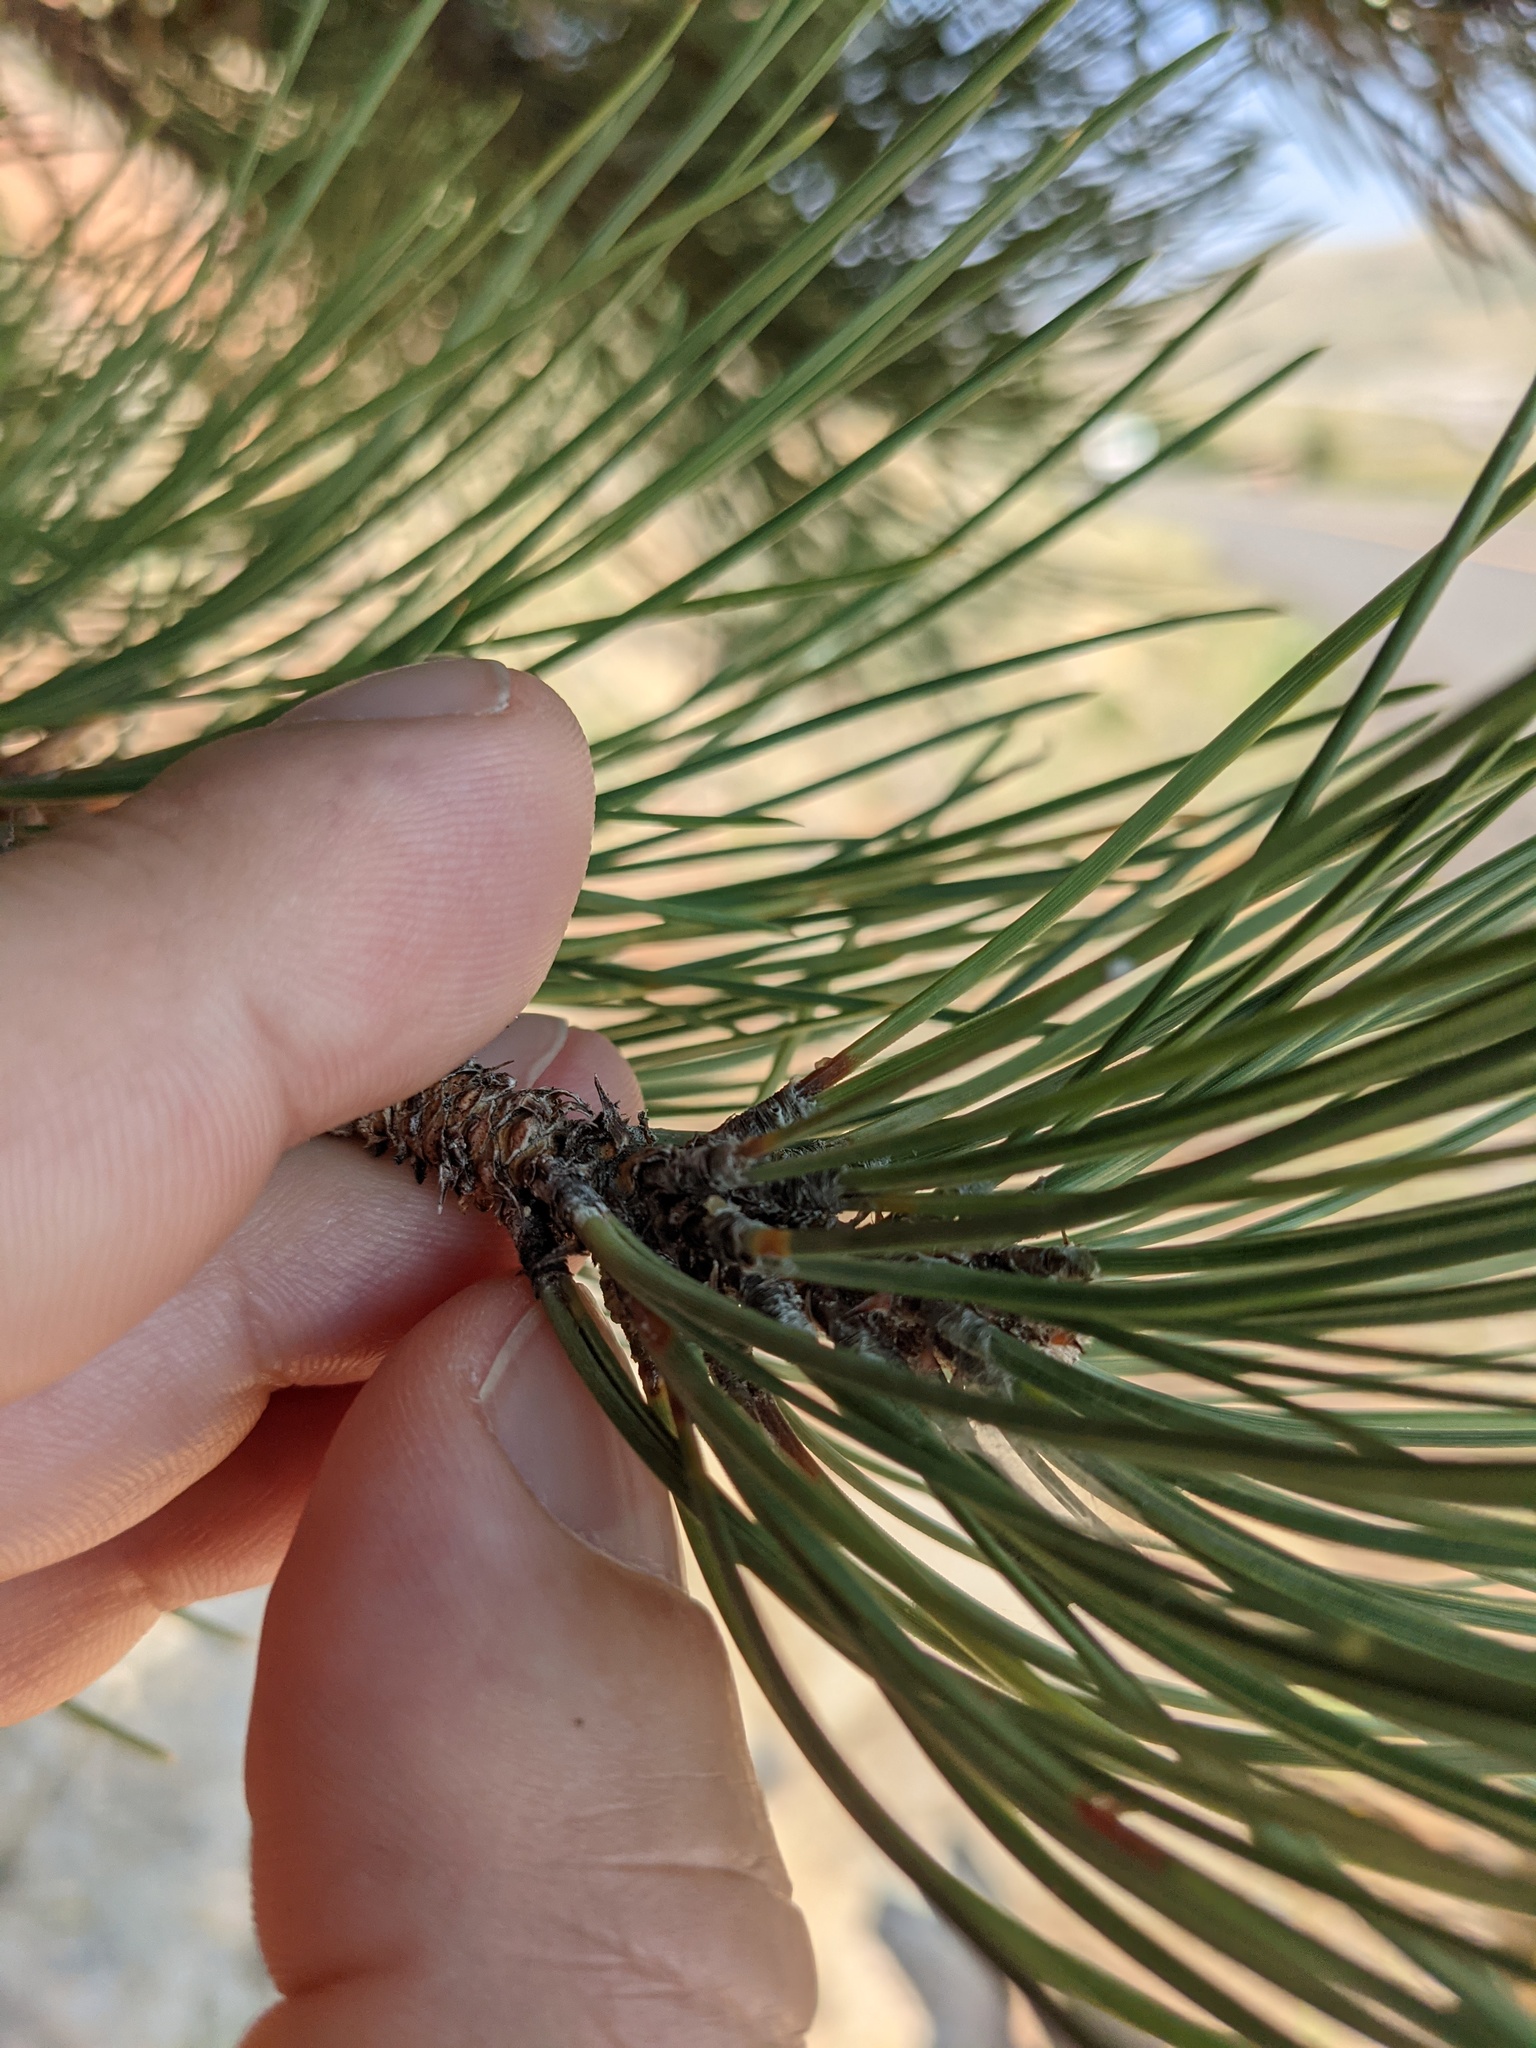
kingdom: Plantae
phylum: Tracheophyta
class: Pinopsida
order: Pinales
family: Pinaceae
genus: Pinus
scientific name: Pinus ponderosa
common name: Western yellow-pine
